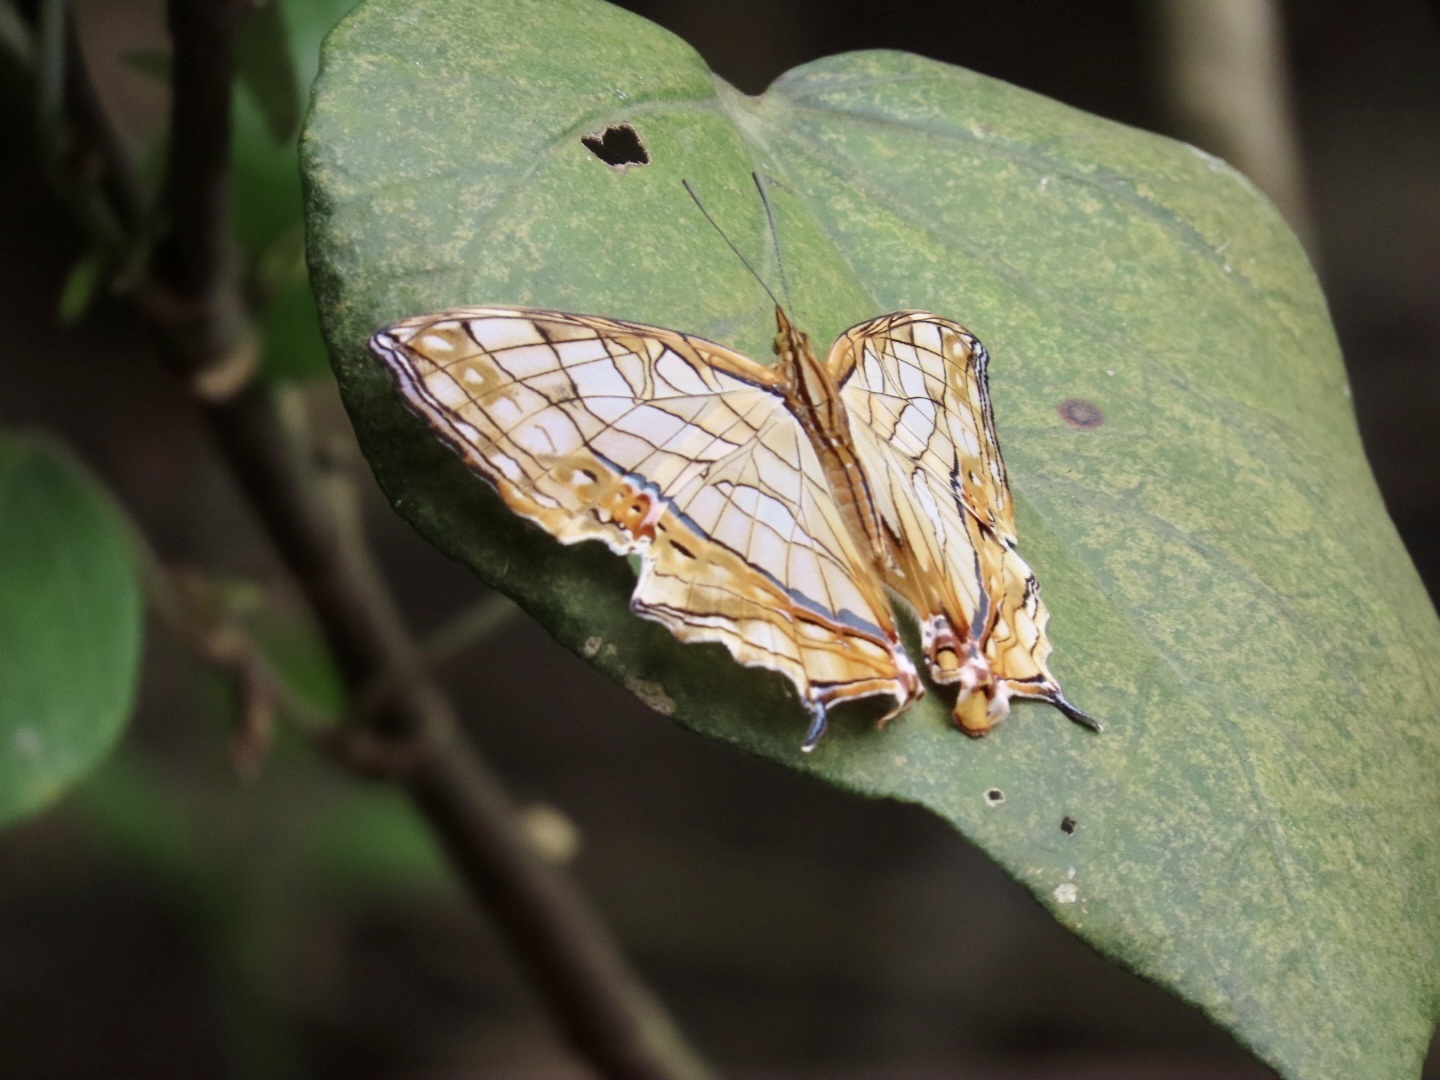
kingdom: Animalia
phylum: Arthropoda
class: Insecta
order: Lepidoptera
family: Nymphalidae
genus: Cyrestis
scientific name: Cyrestis thyodamas
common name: Common mapwing
